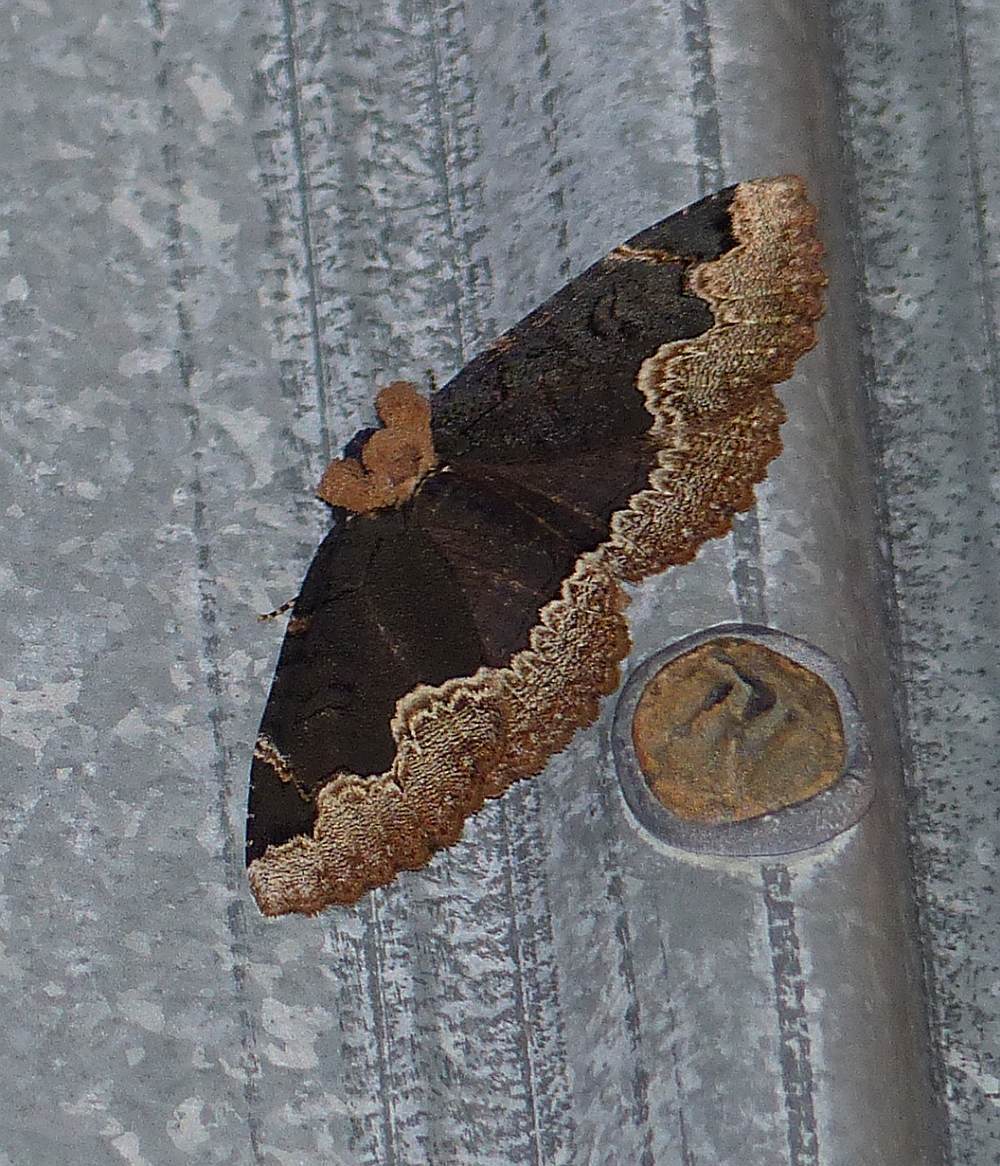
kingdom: Animalia
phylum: Arthropoda
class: Insecta
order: Lepidoptera
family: Erebidae
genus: Zale
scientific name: Zale horrida
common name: Horrid zale moth
